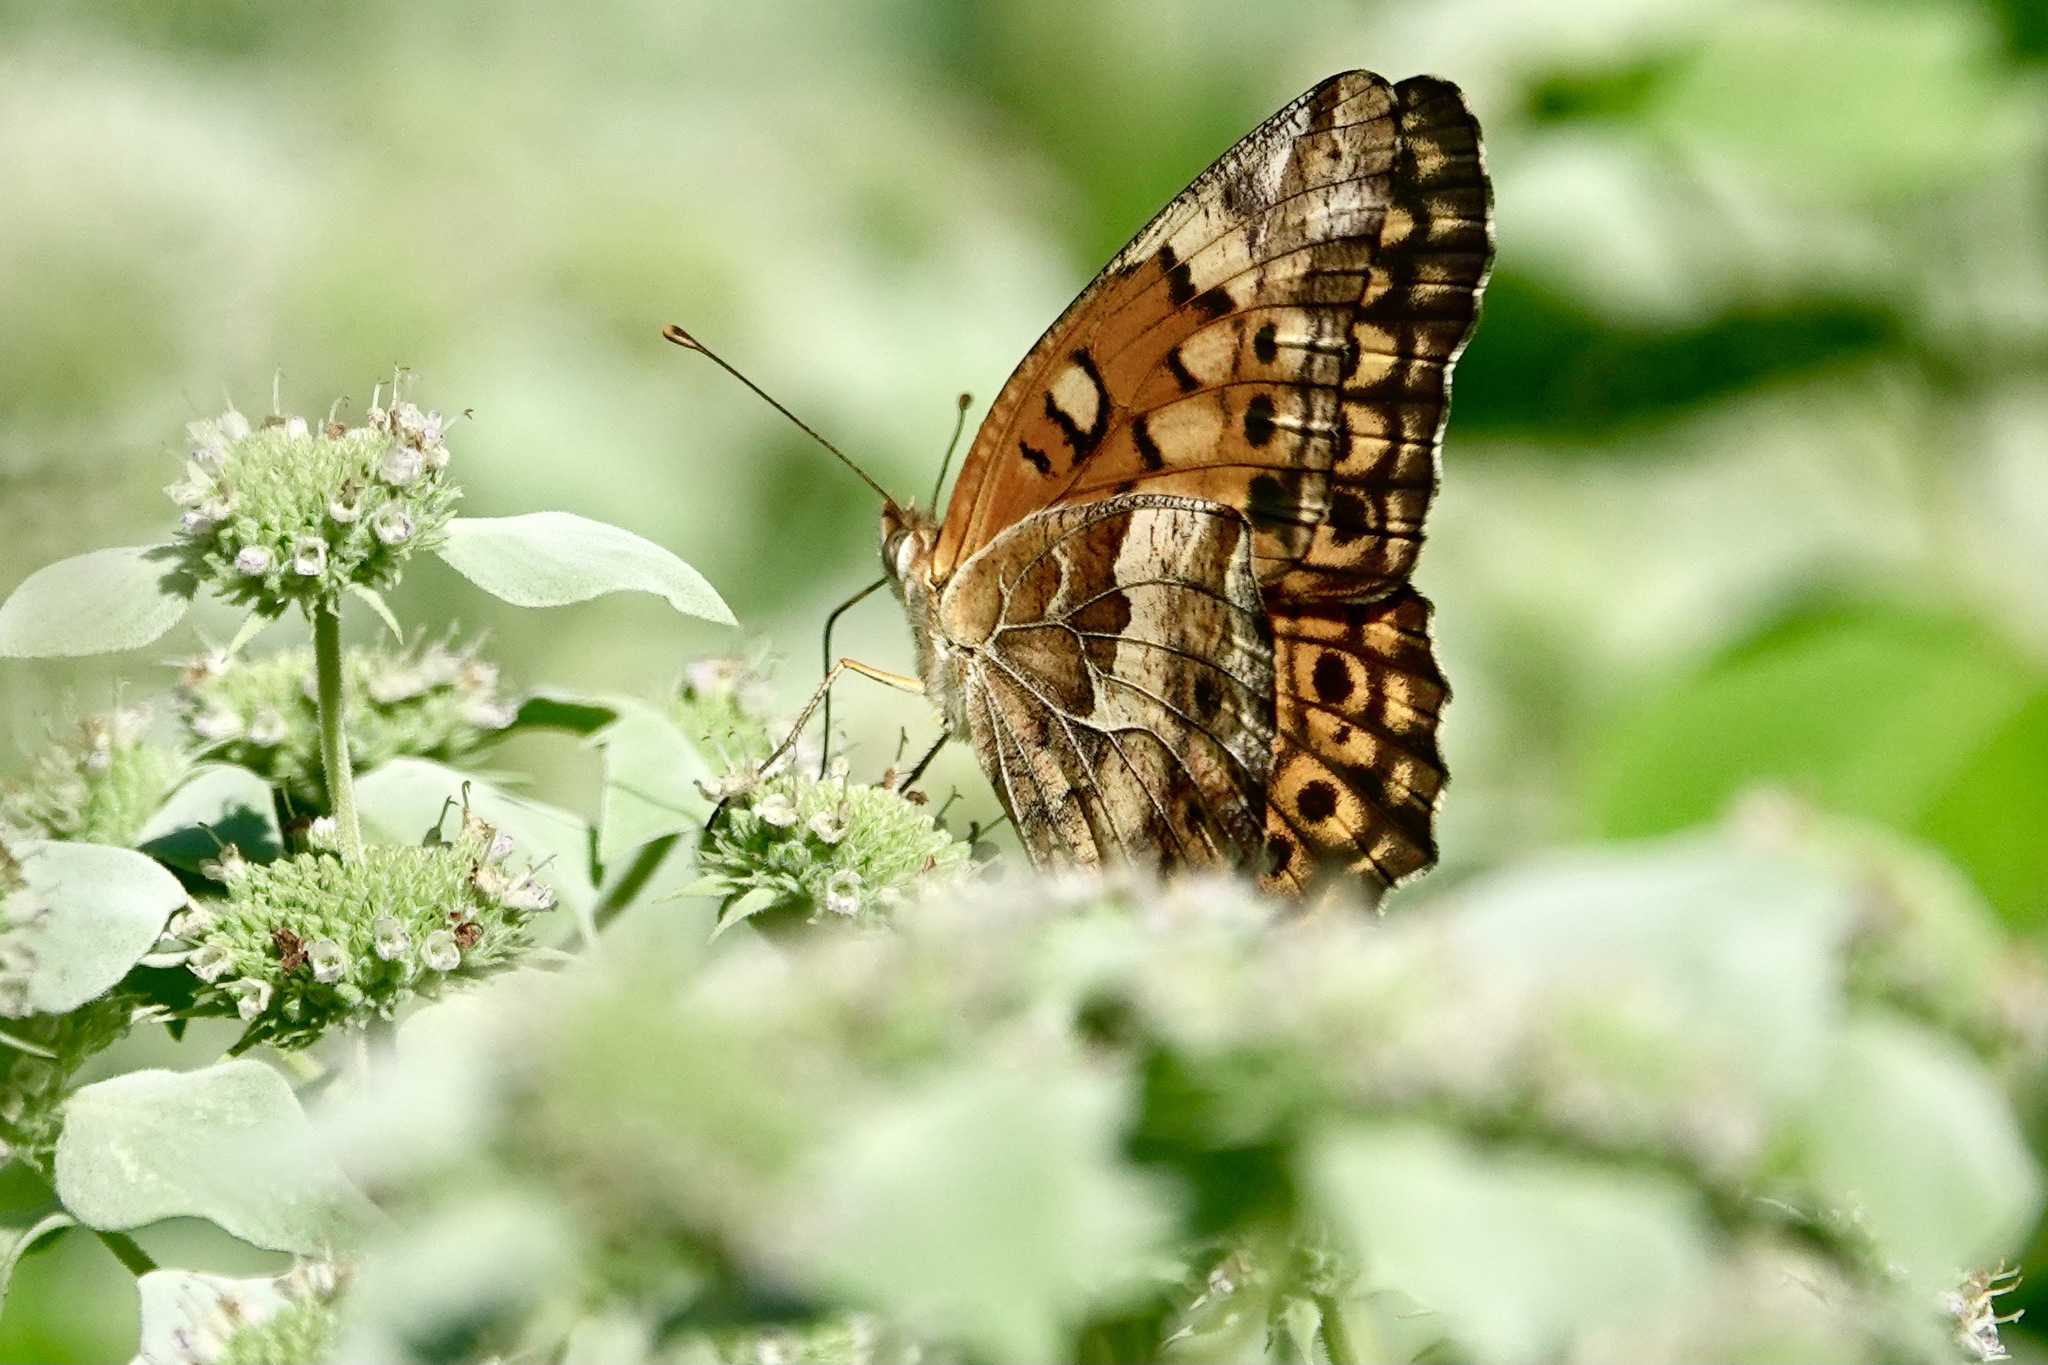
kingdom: Animalia
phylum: Arthropoda
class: Insecta
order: Lepidoptera
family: Nymphalidae
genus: Euptoieta
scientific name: Euptoieta claudia
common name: Variegated fritillary
